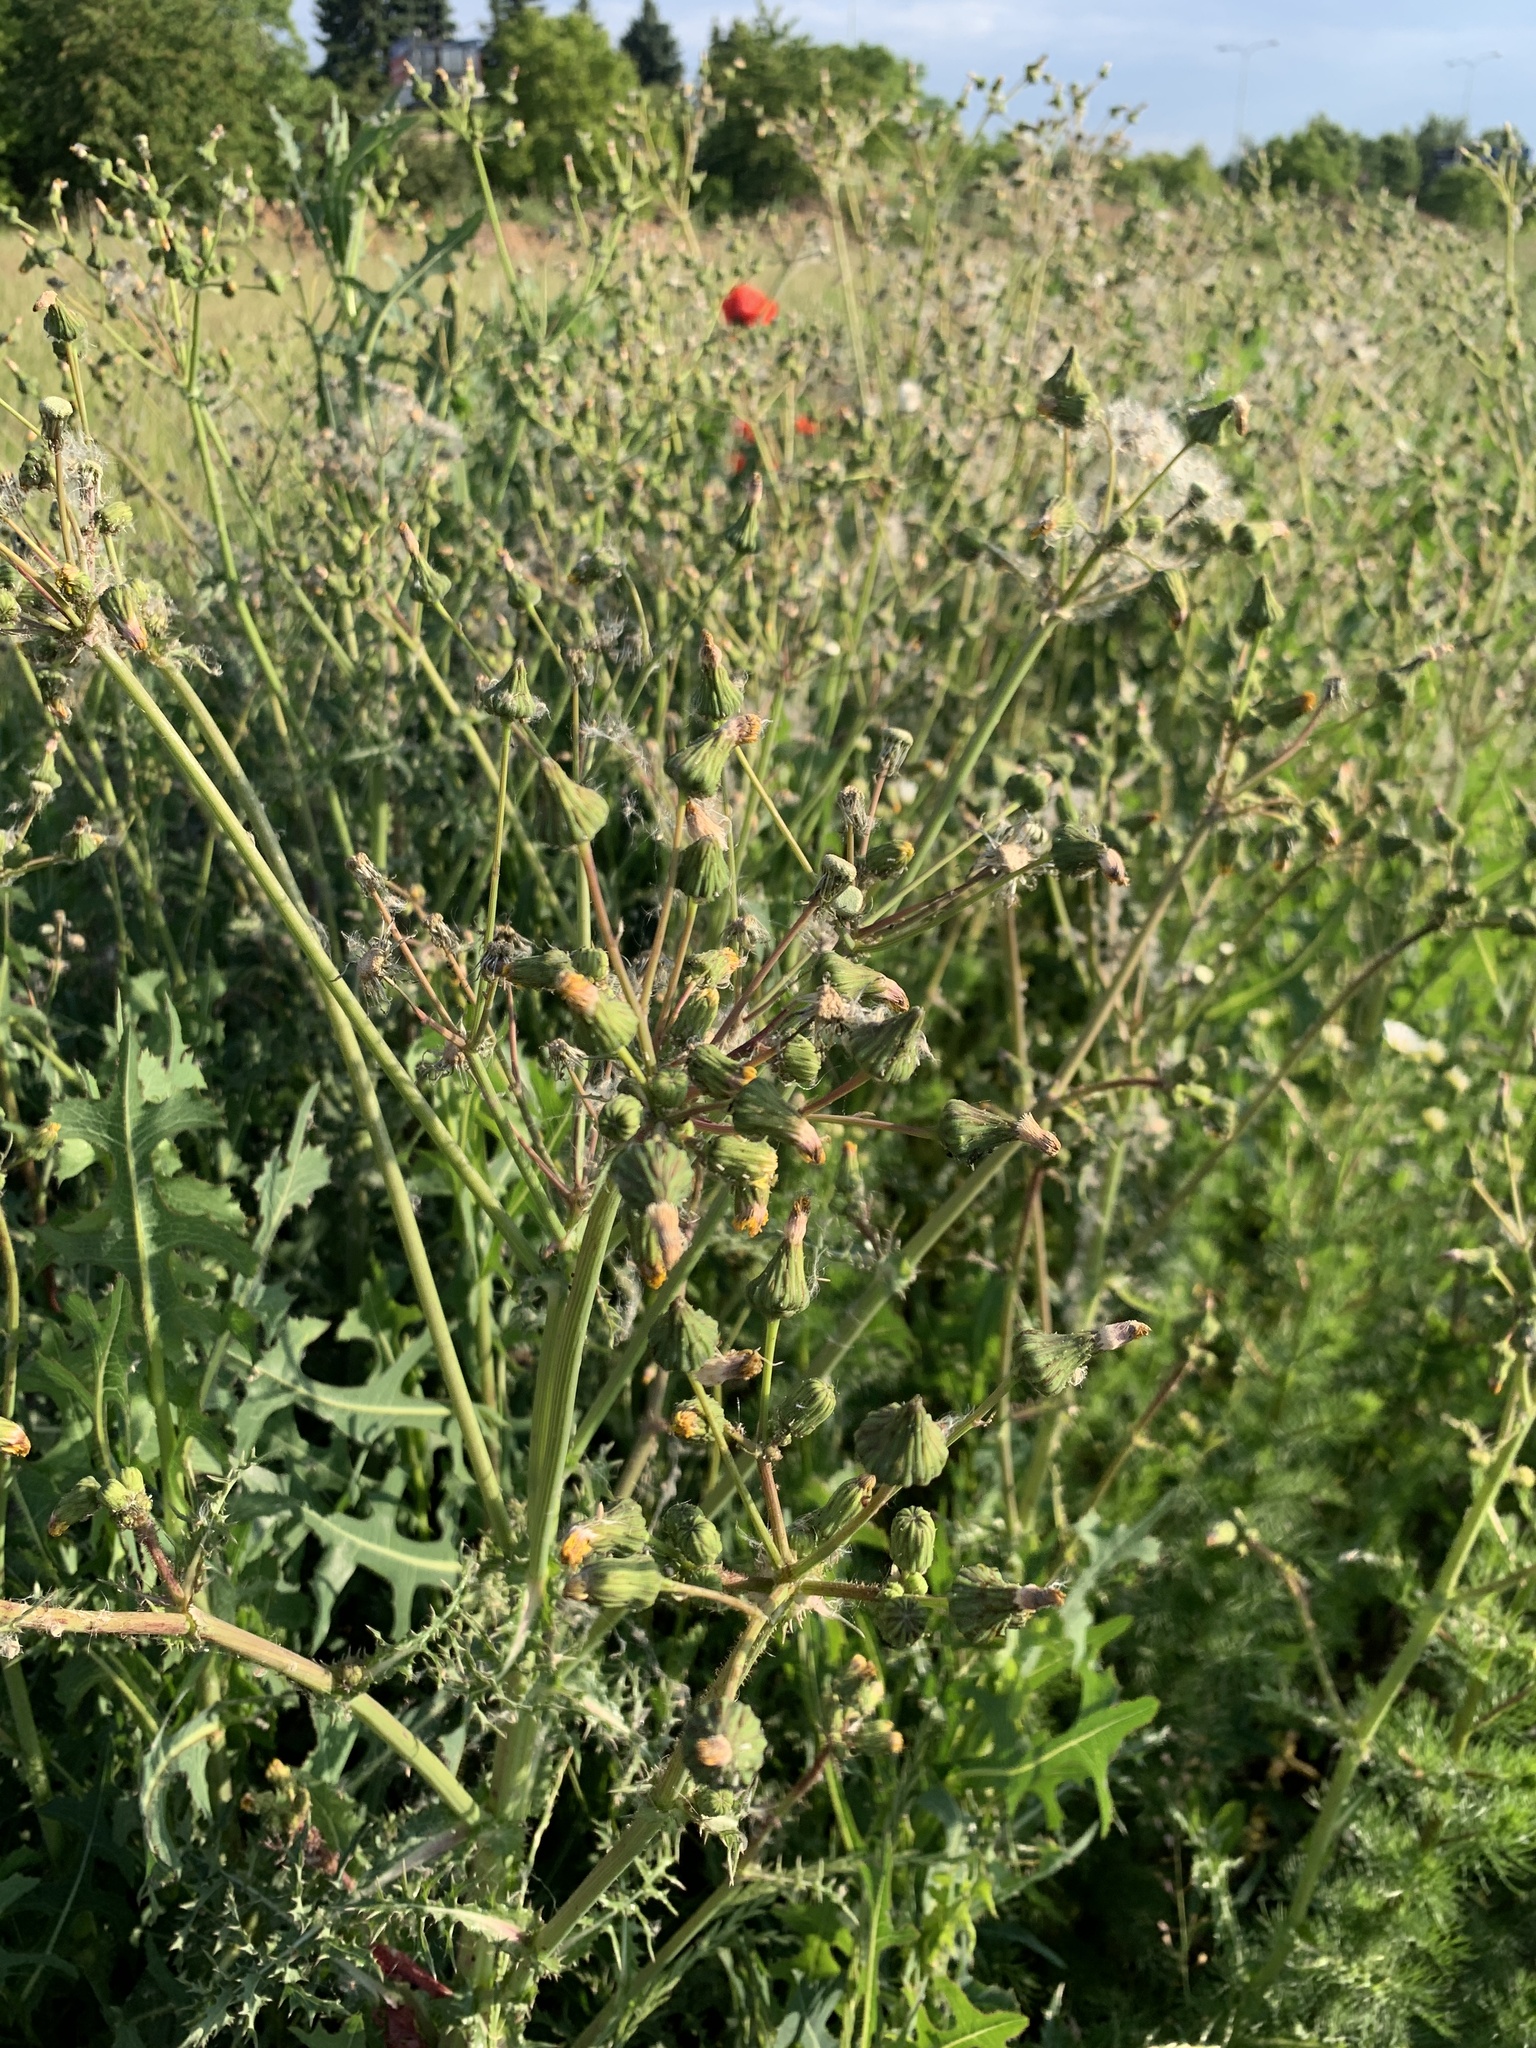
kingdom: Plantae
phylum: Tracheophyta
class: Magnoliopsida
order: Asterales
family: Asteraceae
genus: Sonchus
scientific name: Sonchus asper
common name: Prickly sow-thistle
